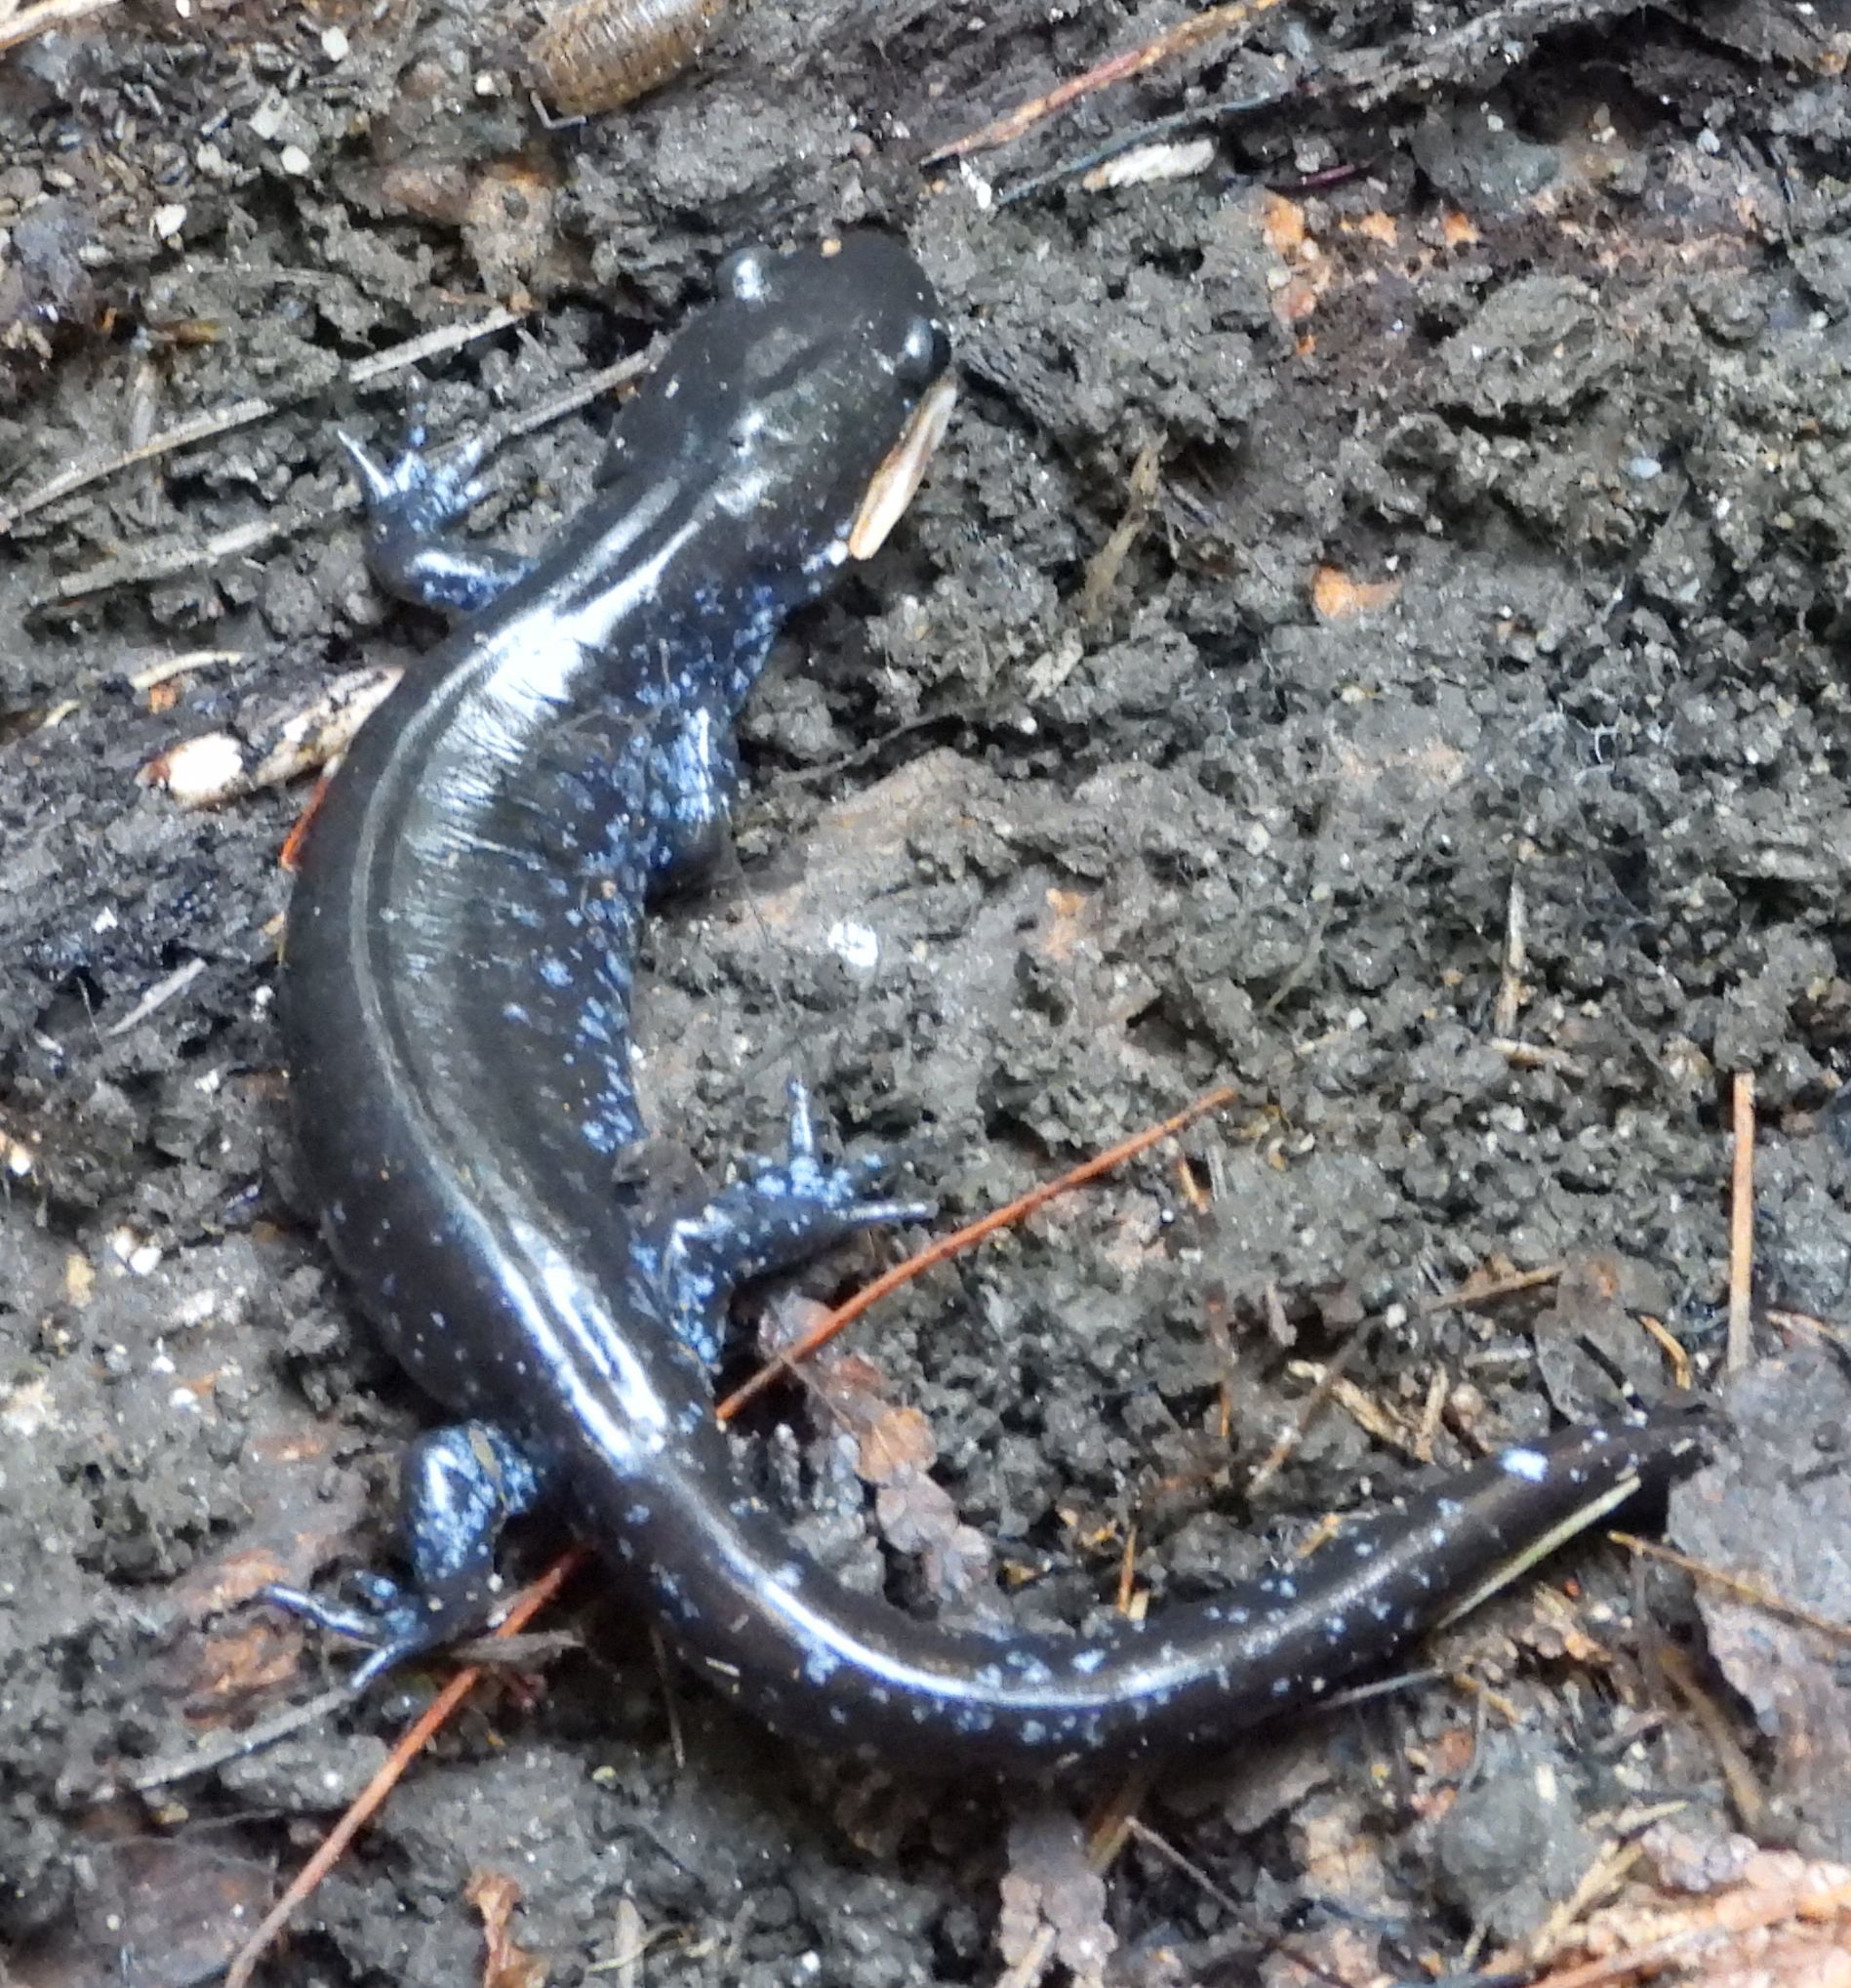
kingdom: Animalia
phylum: Chordata
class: Amphibia
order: Caudata
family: Ambystomatidae
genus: Ambystoma
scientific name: Ambystoma laterale
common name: Blue-spotted salamander
